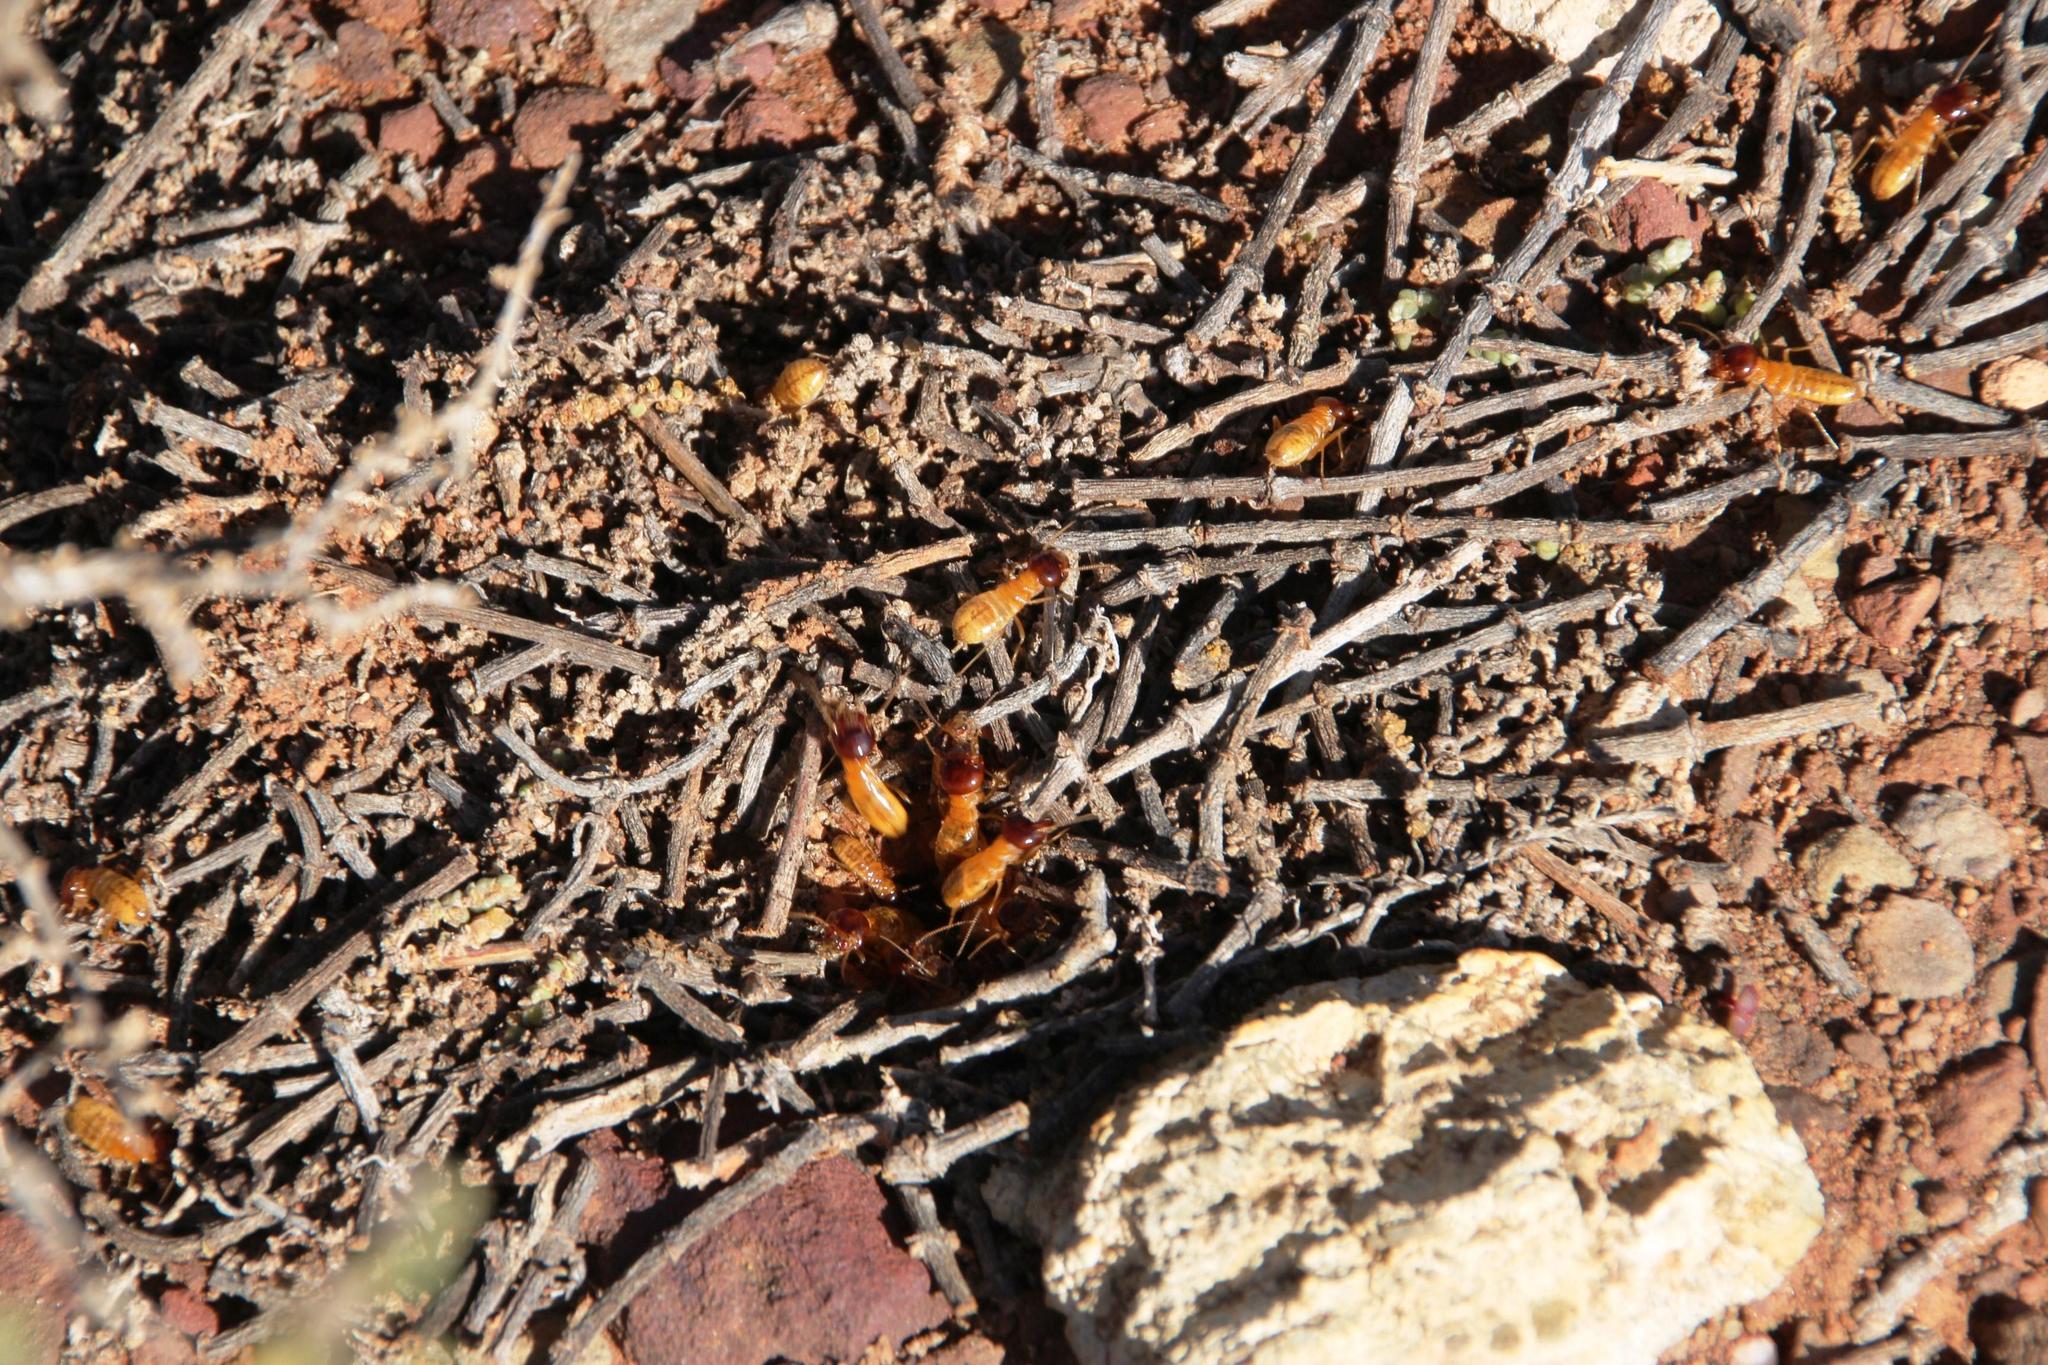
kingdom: Animalia
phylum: Arthropoda
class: Insecta
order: Blattodea
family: Hodotermitidae
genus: Microhodotermes
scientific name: Microhodotermes viator
